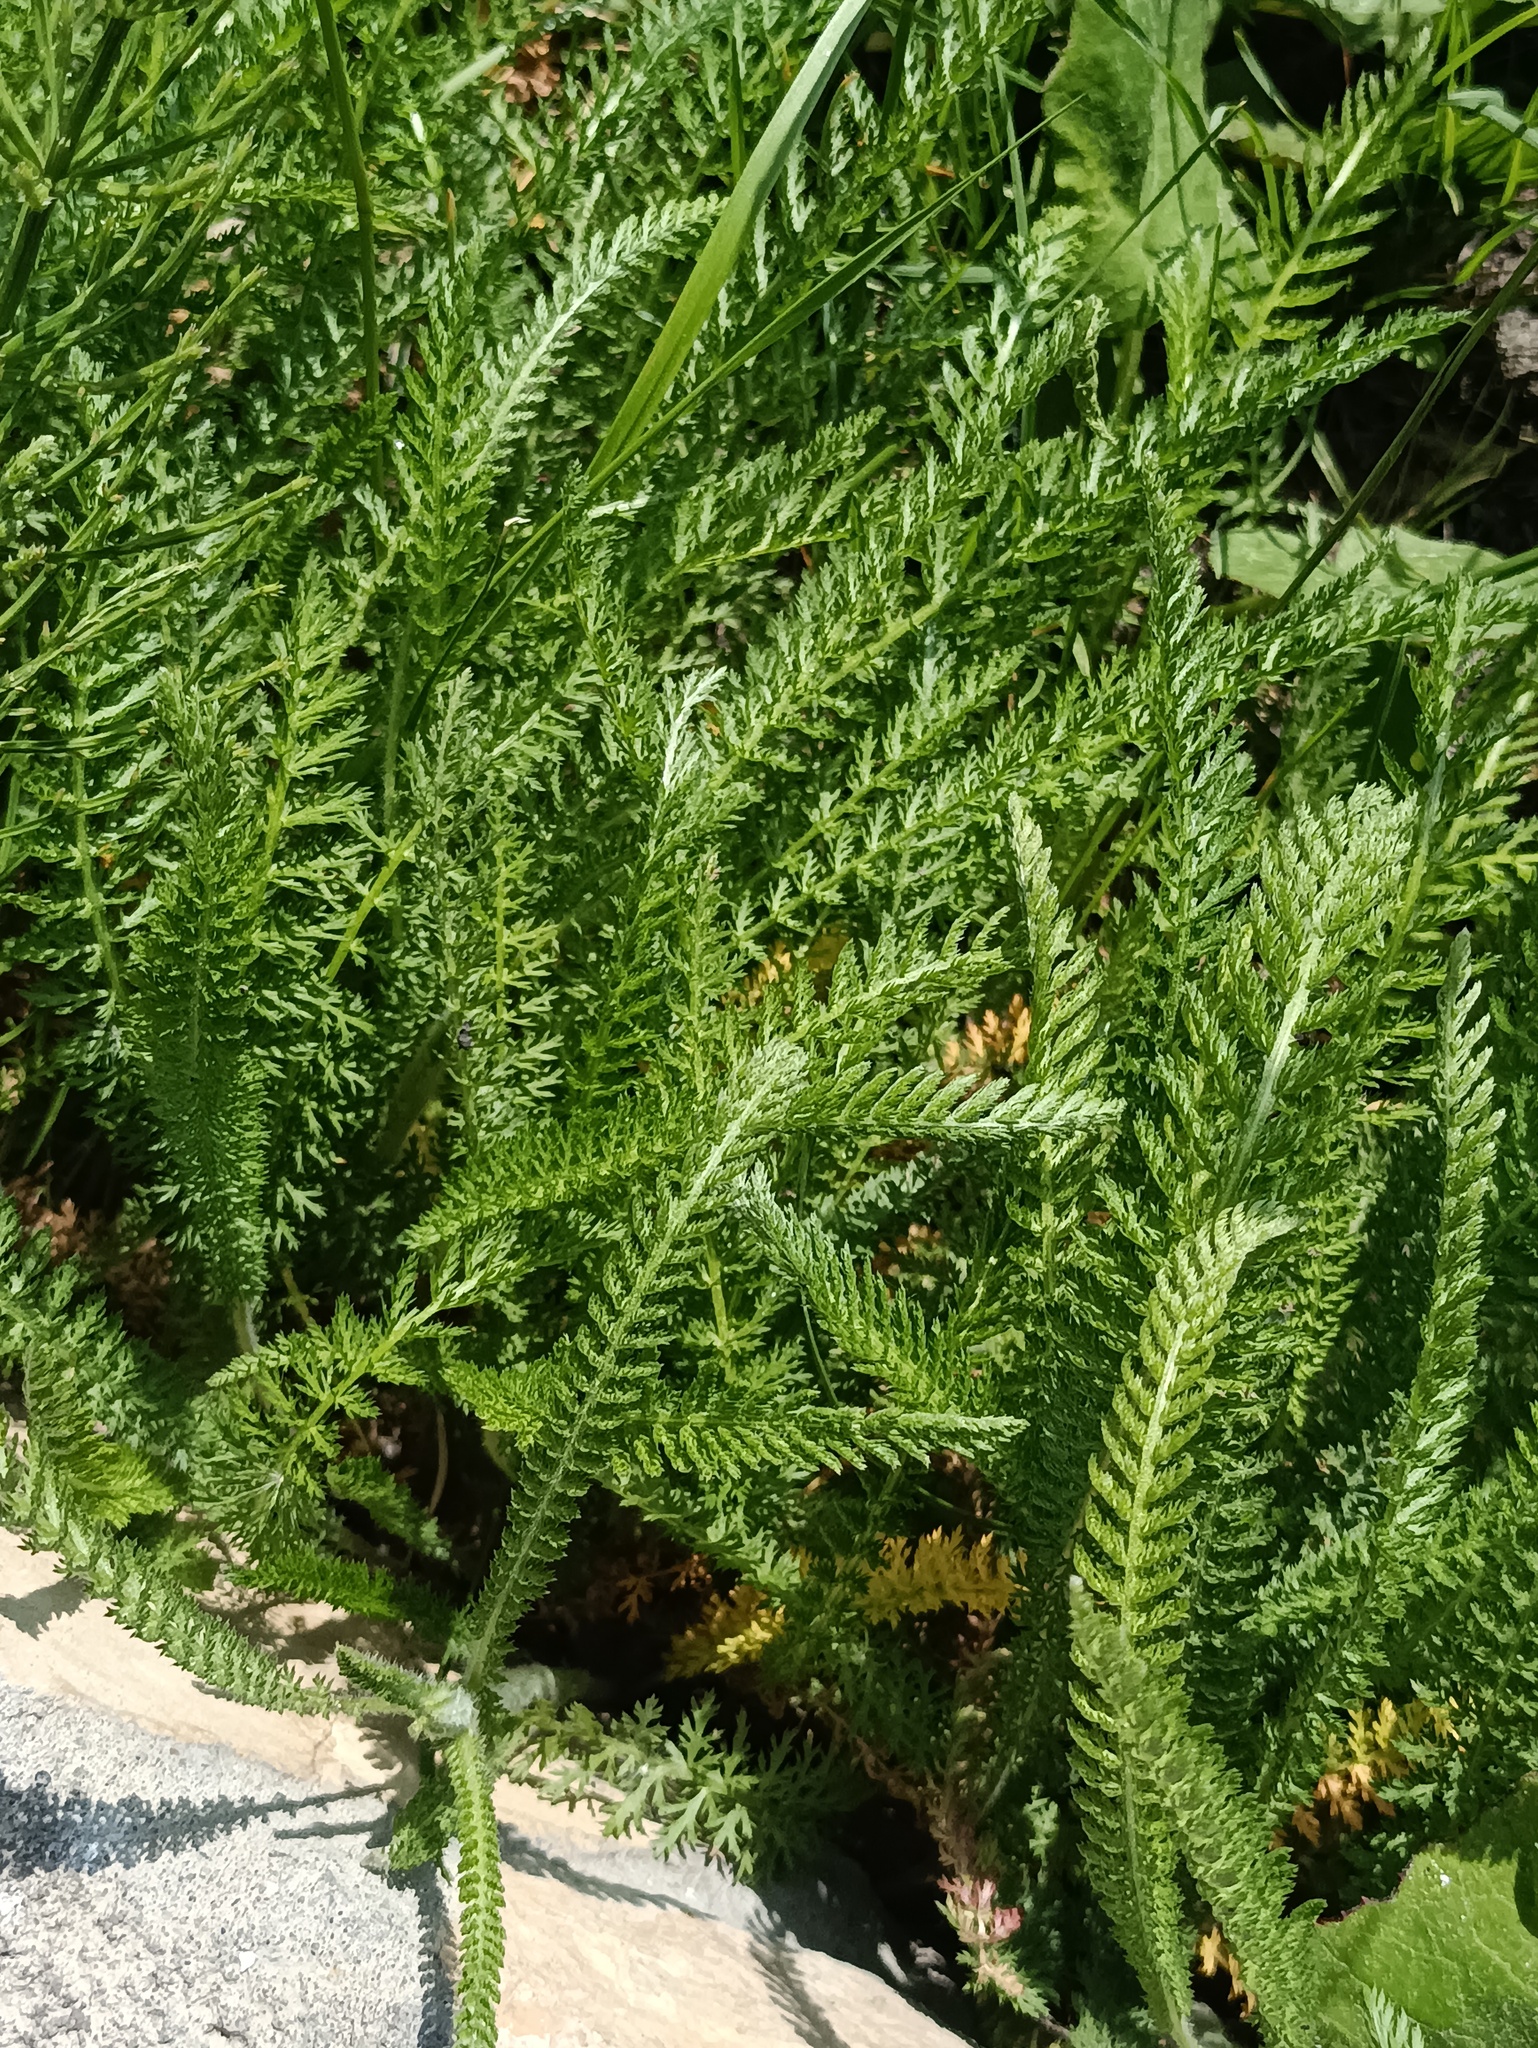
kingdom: Plantae
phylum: Tracheophyta
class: Magnoliopsida
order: Asterales
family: Asteraceae
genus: Achillea
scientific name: Achillea millefolium
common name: Yarrow
